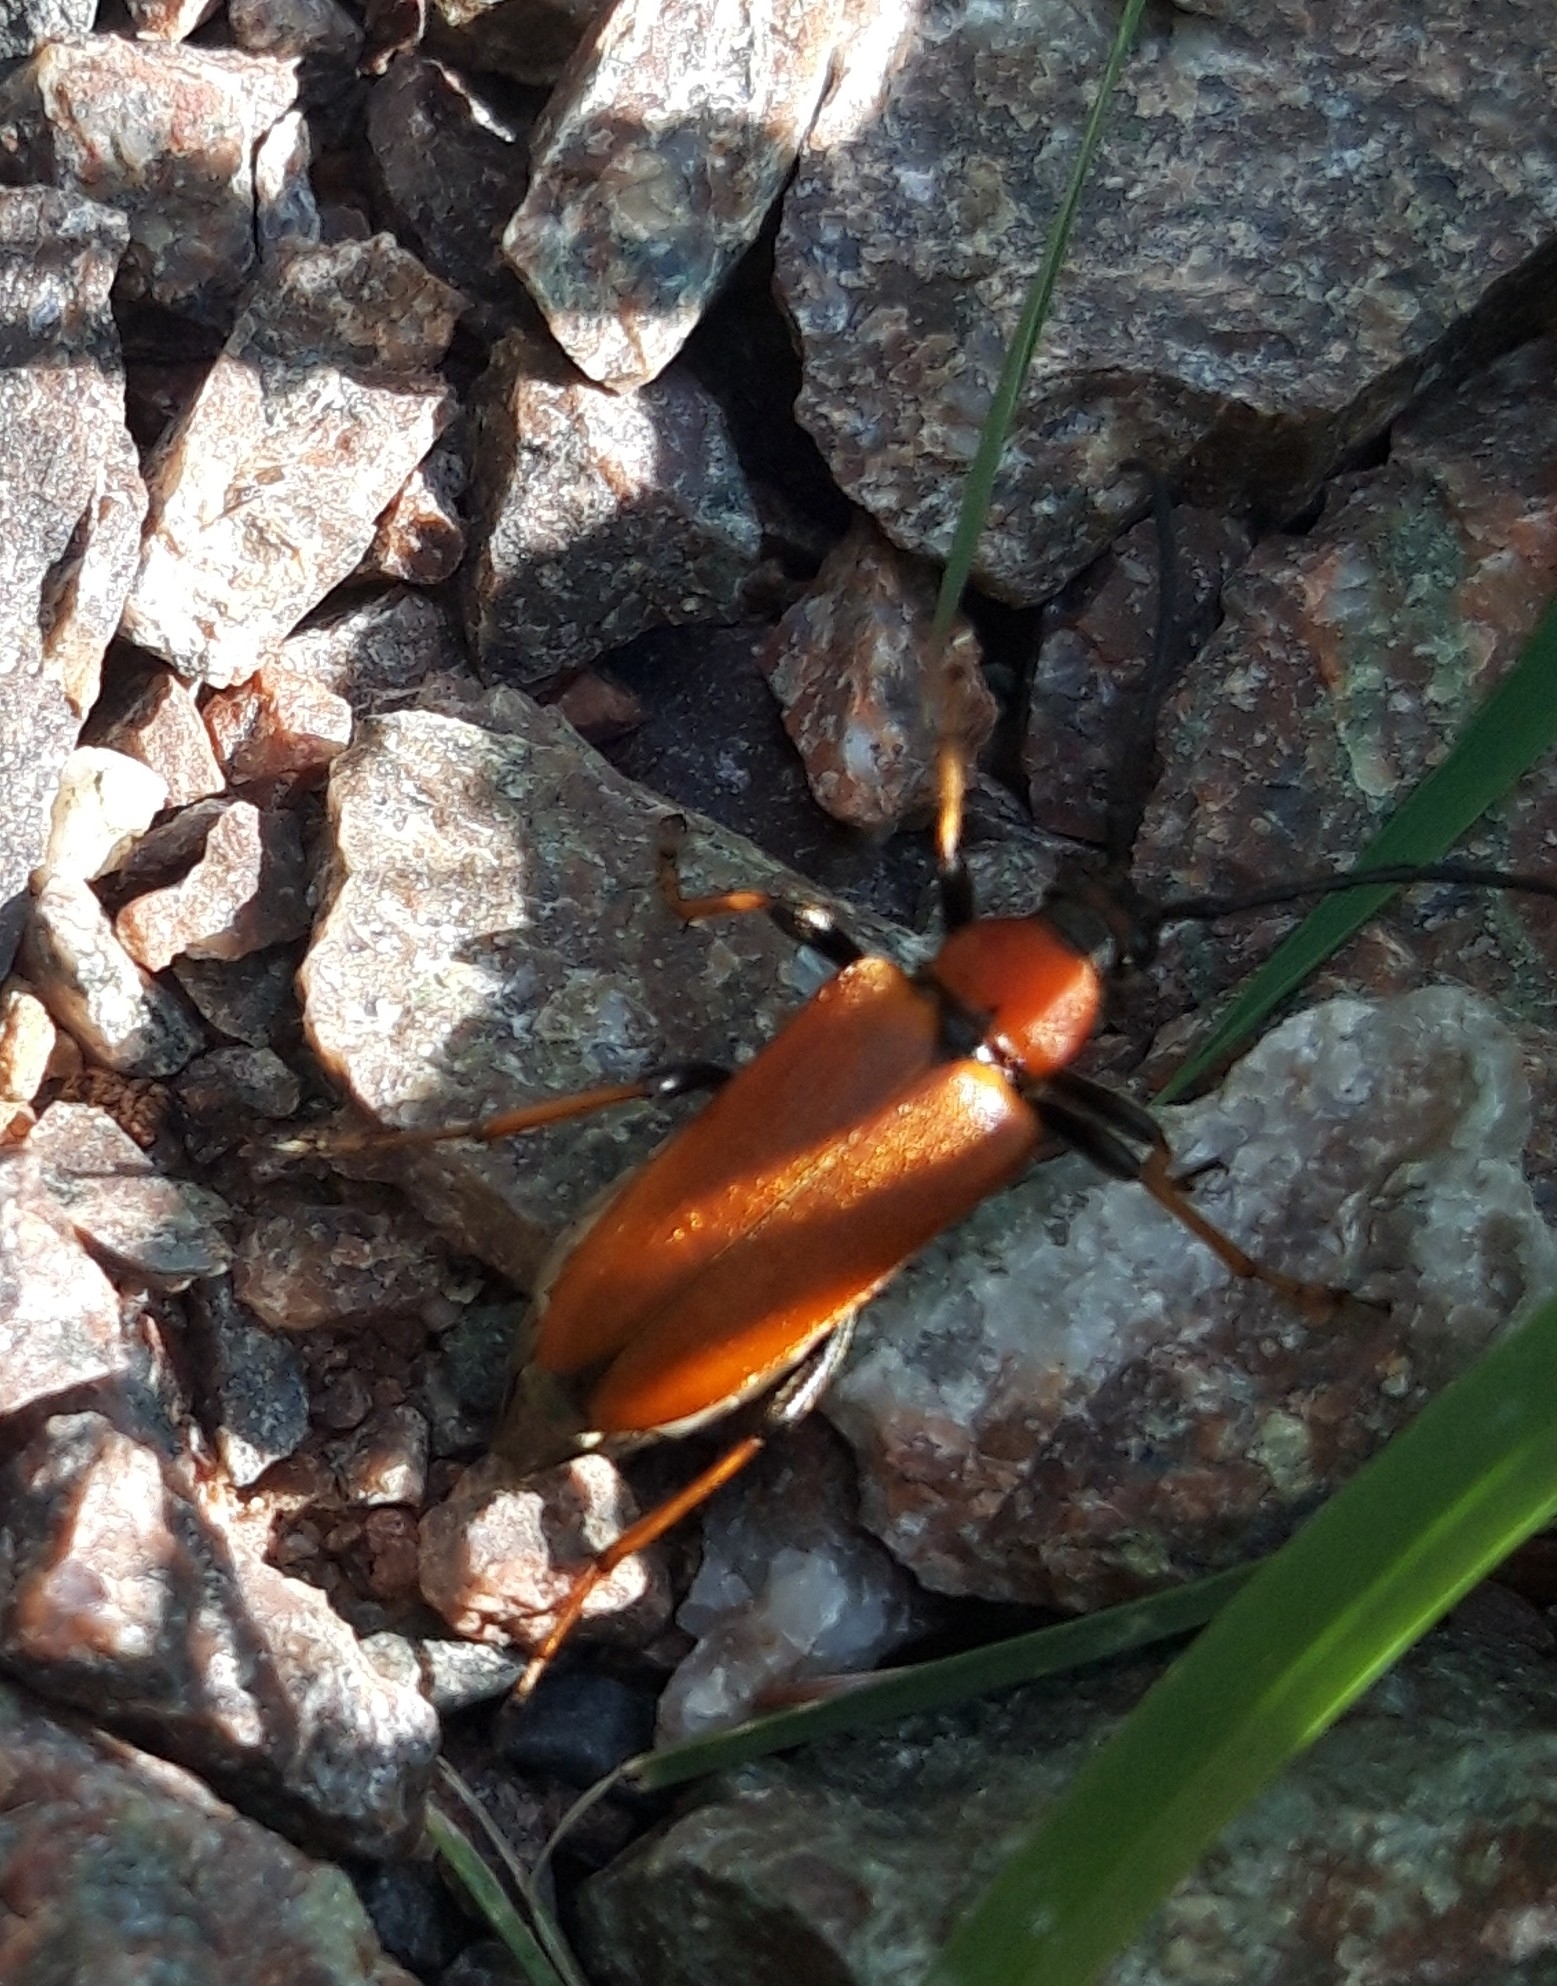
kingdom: Animalia
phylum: Arthropoda
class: Insecta
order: Coleoptera
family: Cerambycidae
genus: Stictoleptura
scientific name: Stictoleptura rubra
